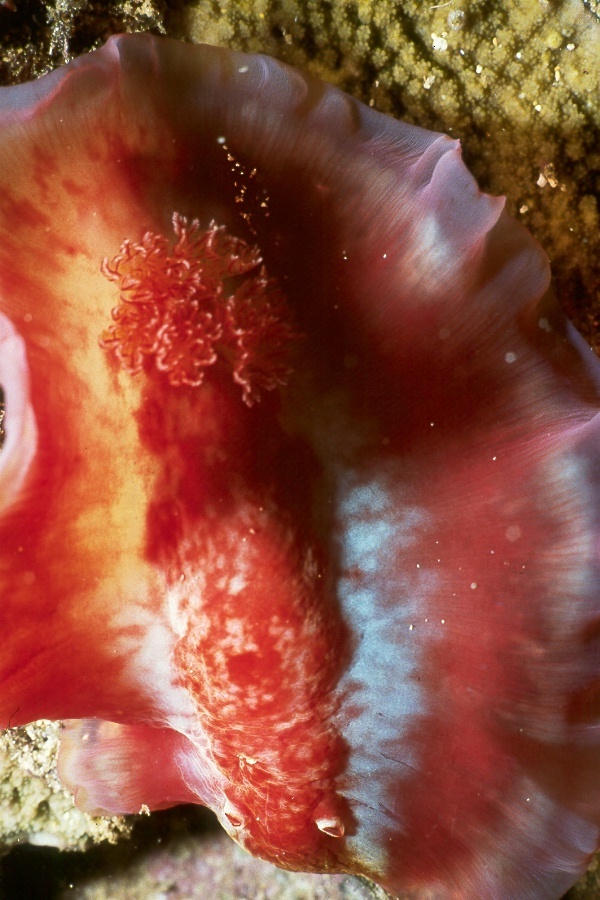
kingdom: Animalia
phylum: Mollusca
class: Gastropoda
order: Nudibranchia
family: Hexabranchidae
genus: Hexabranchus
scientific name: Hexabranchus aureomarginatus
